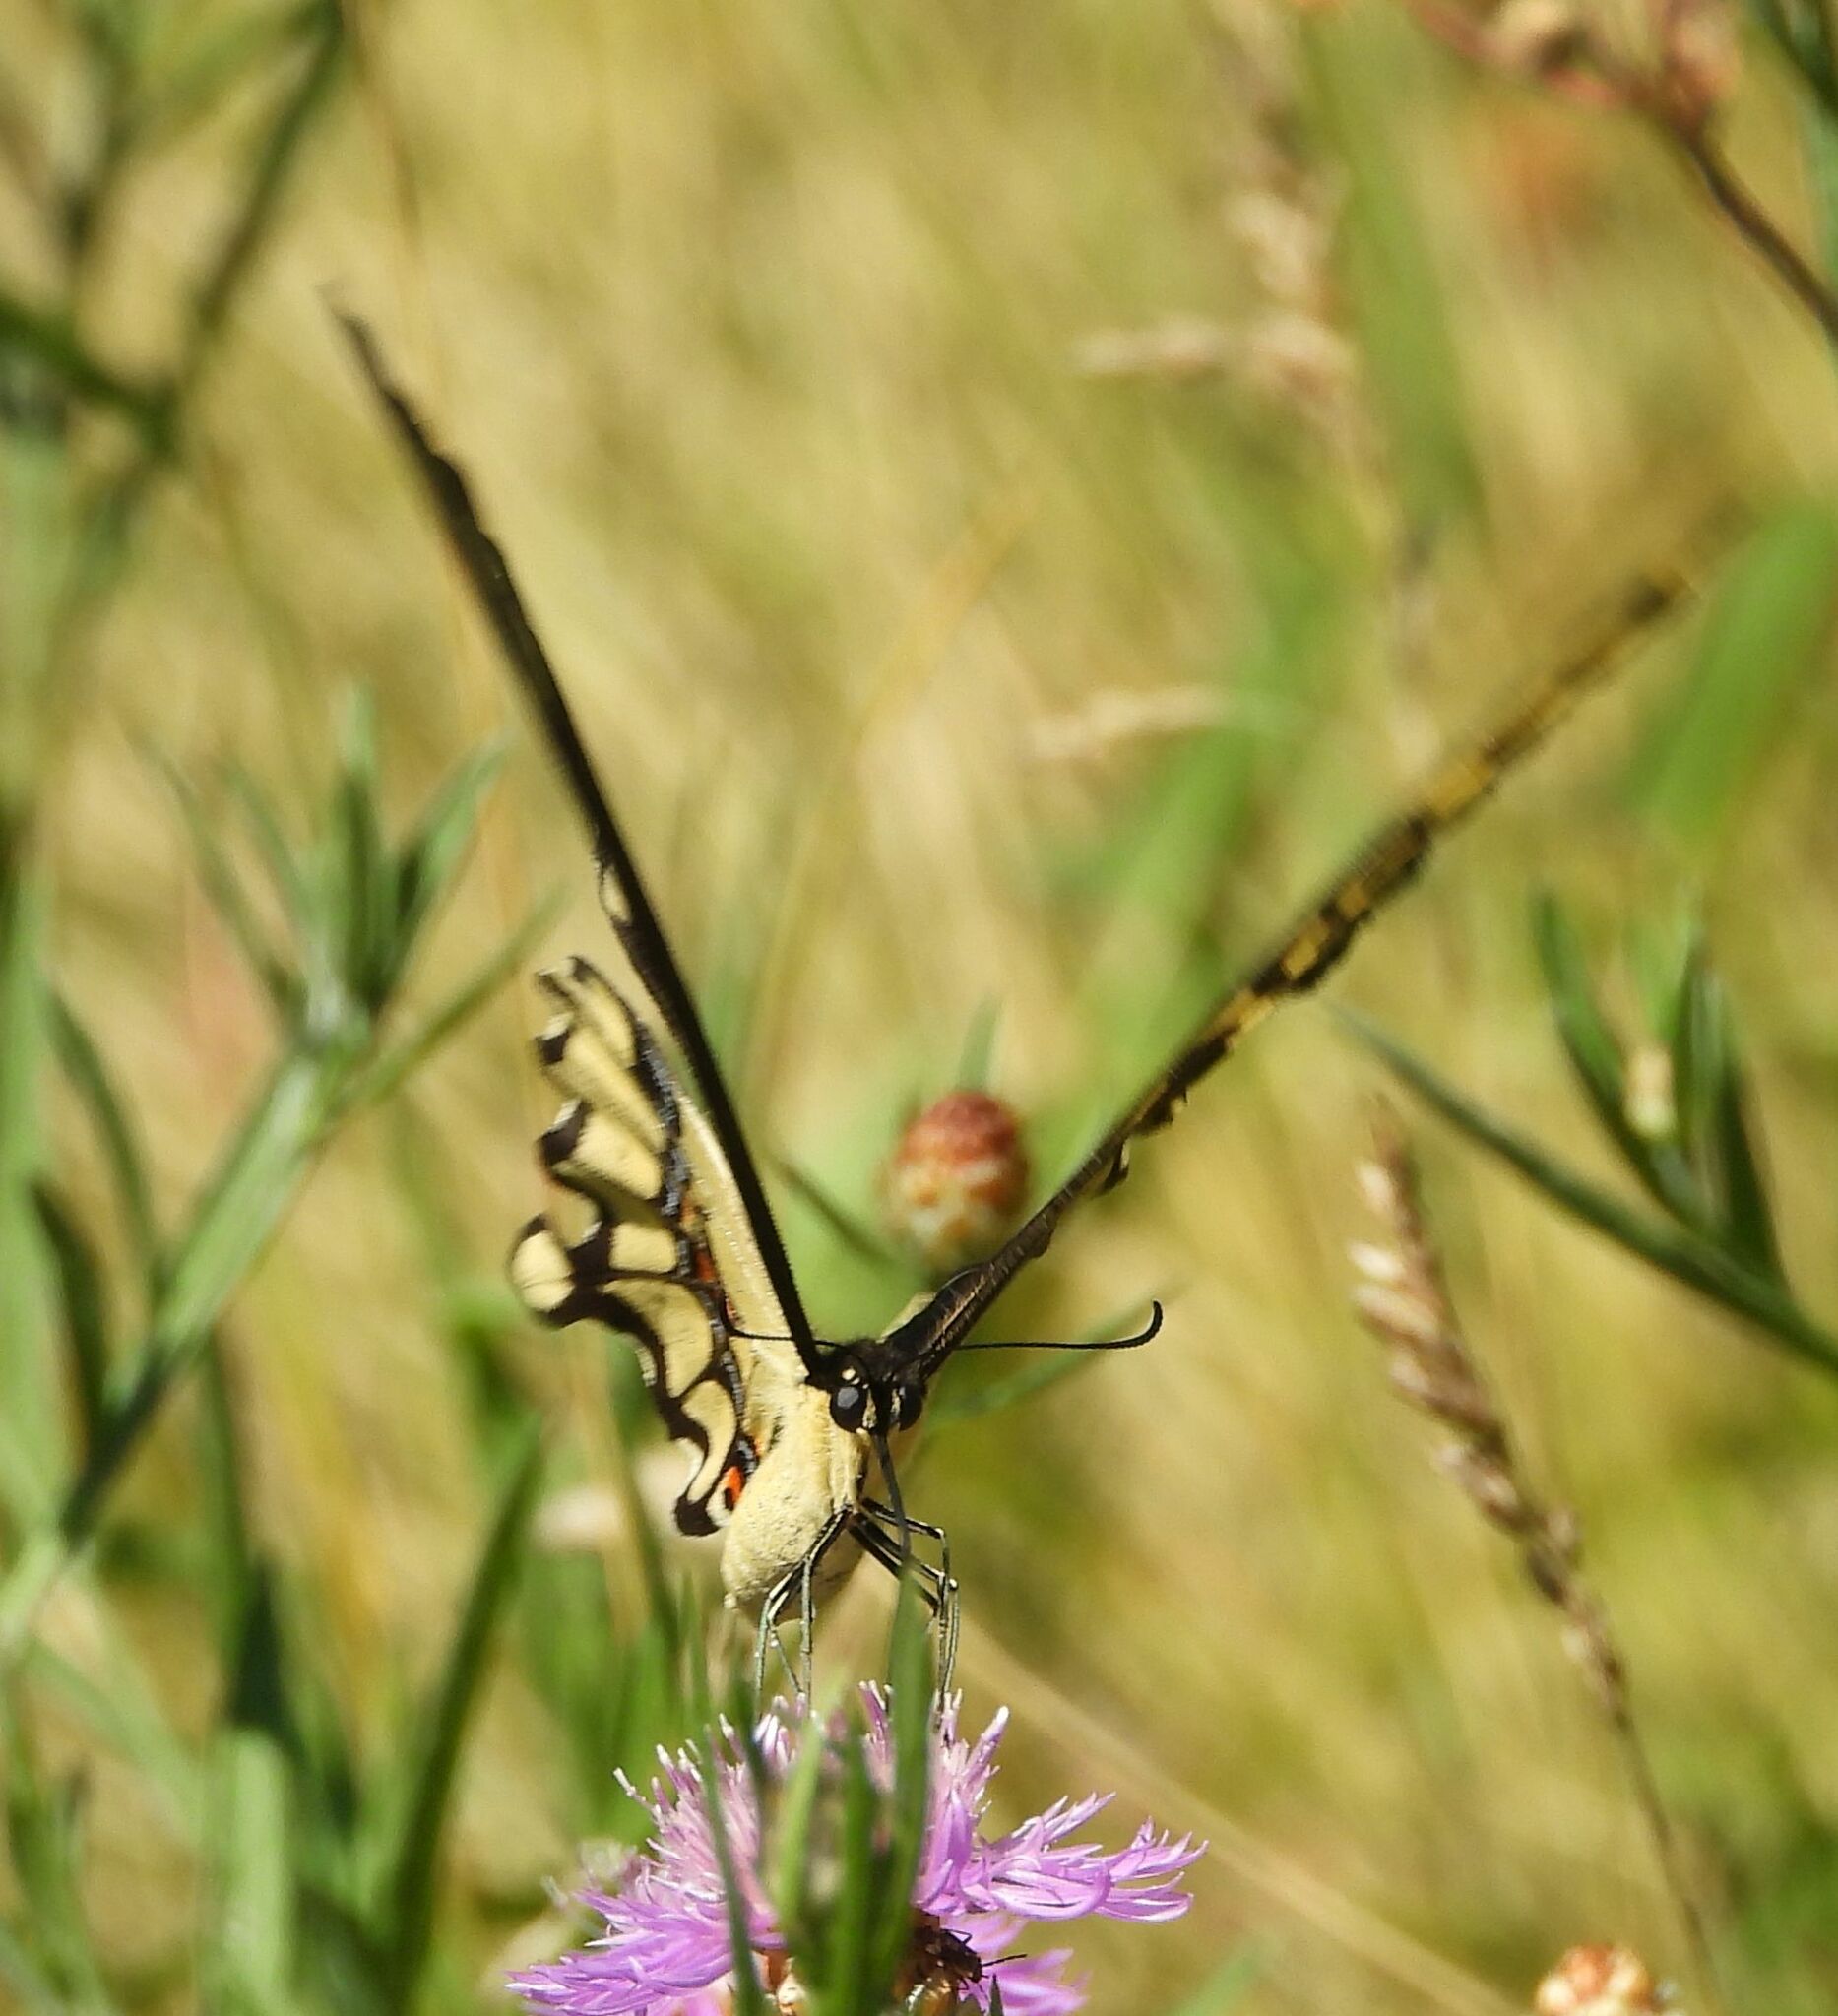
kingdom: Animalia
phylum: Arthropoda
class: Insecta
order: Lepidoptera
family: Papilionidae
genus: Papilio
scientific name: Papilio cresphontes
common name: Giant swallowtail
